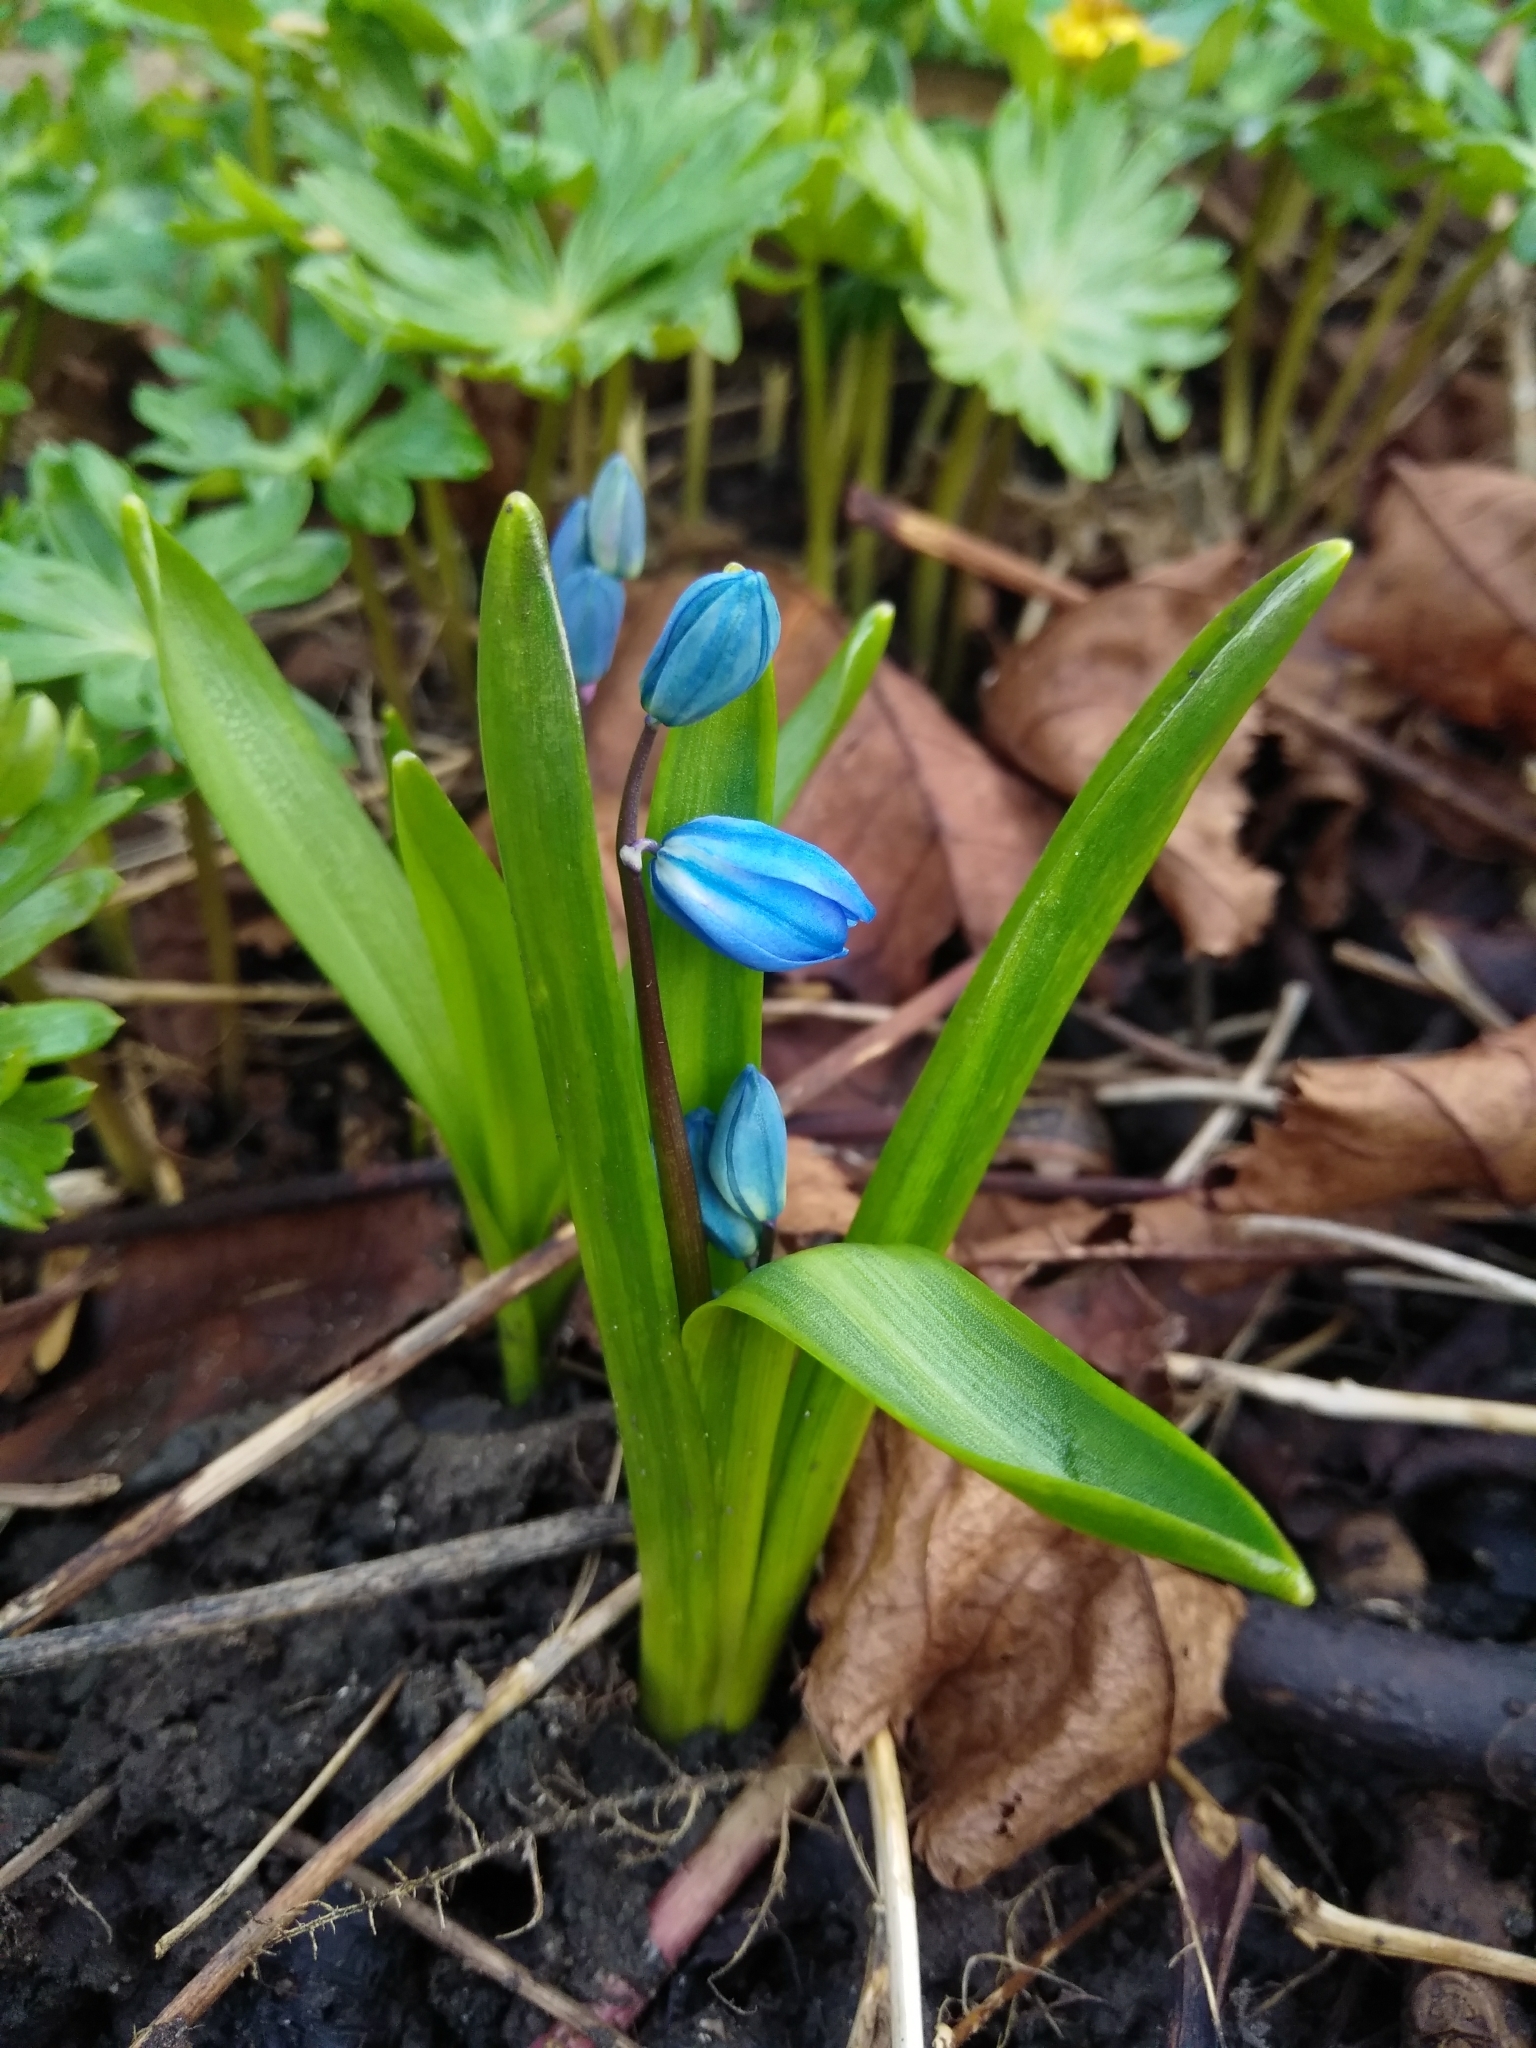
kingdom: Plantae
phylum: Tracheophyta
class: Liliopsida
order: Asparagales
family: Asparagaceae
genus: Scilla
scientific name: Scilla siberica
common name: Siberian squill
